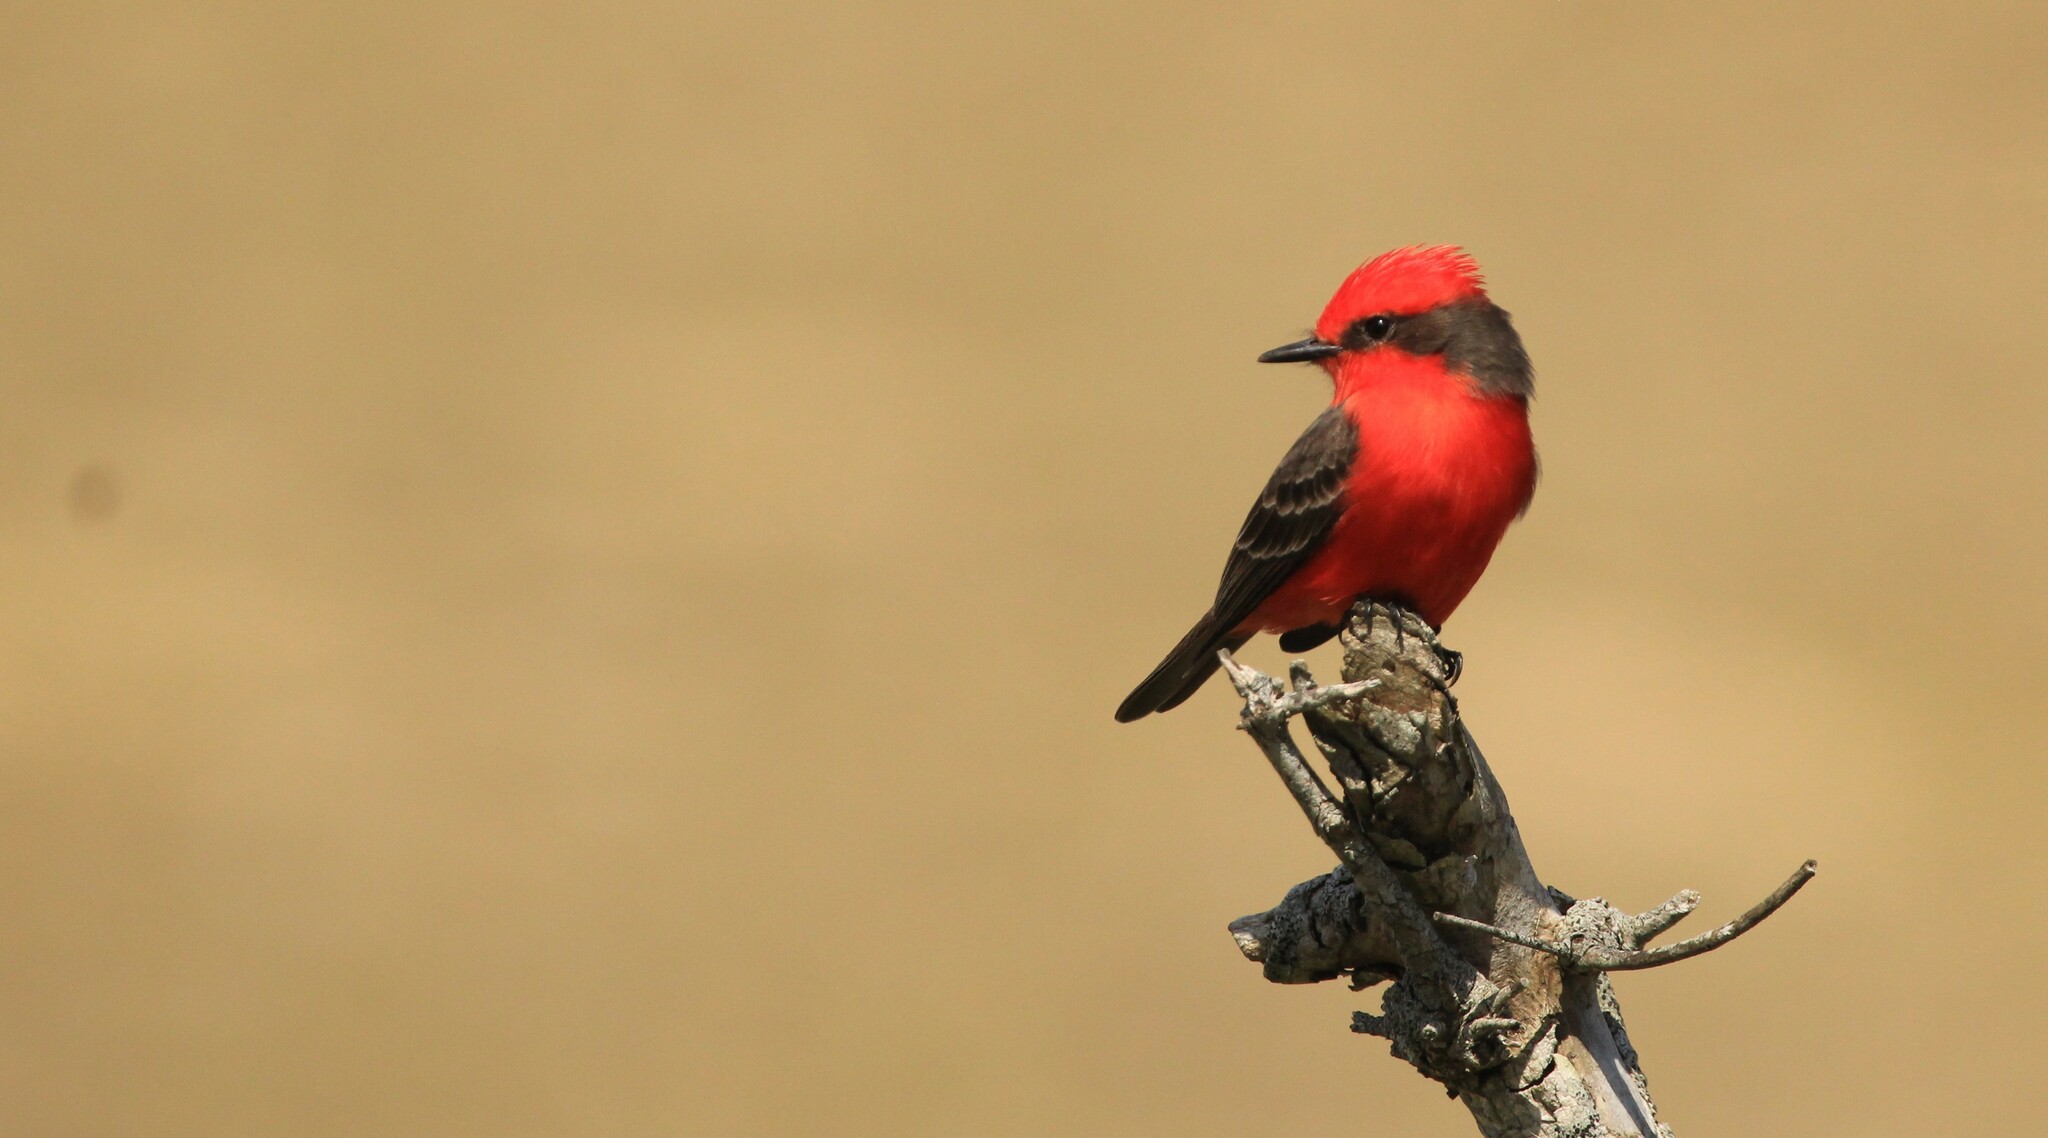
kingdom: Animalia
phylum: Chordata
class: Aves
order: Passeriformes
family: Tyrannidae
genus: Pyrocephalus
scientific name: Pyrocephalus rubinus
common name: Vermilion flycatcher
